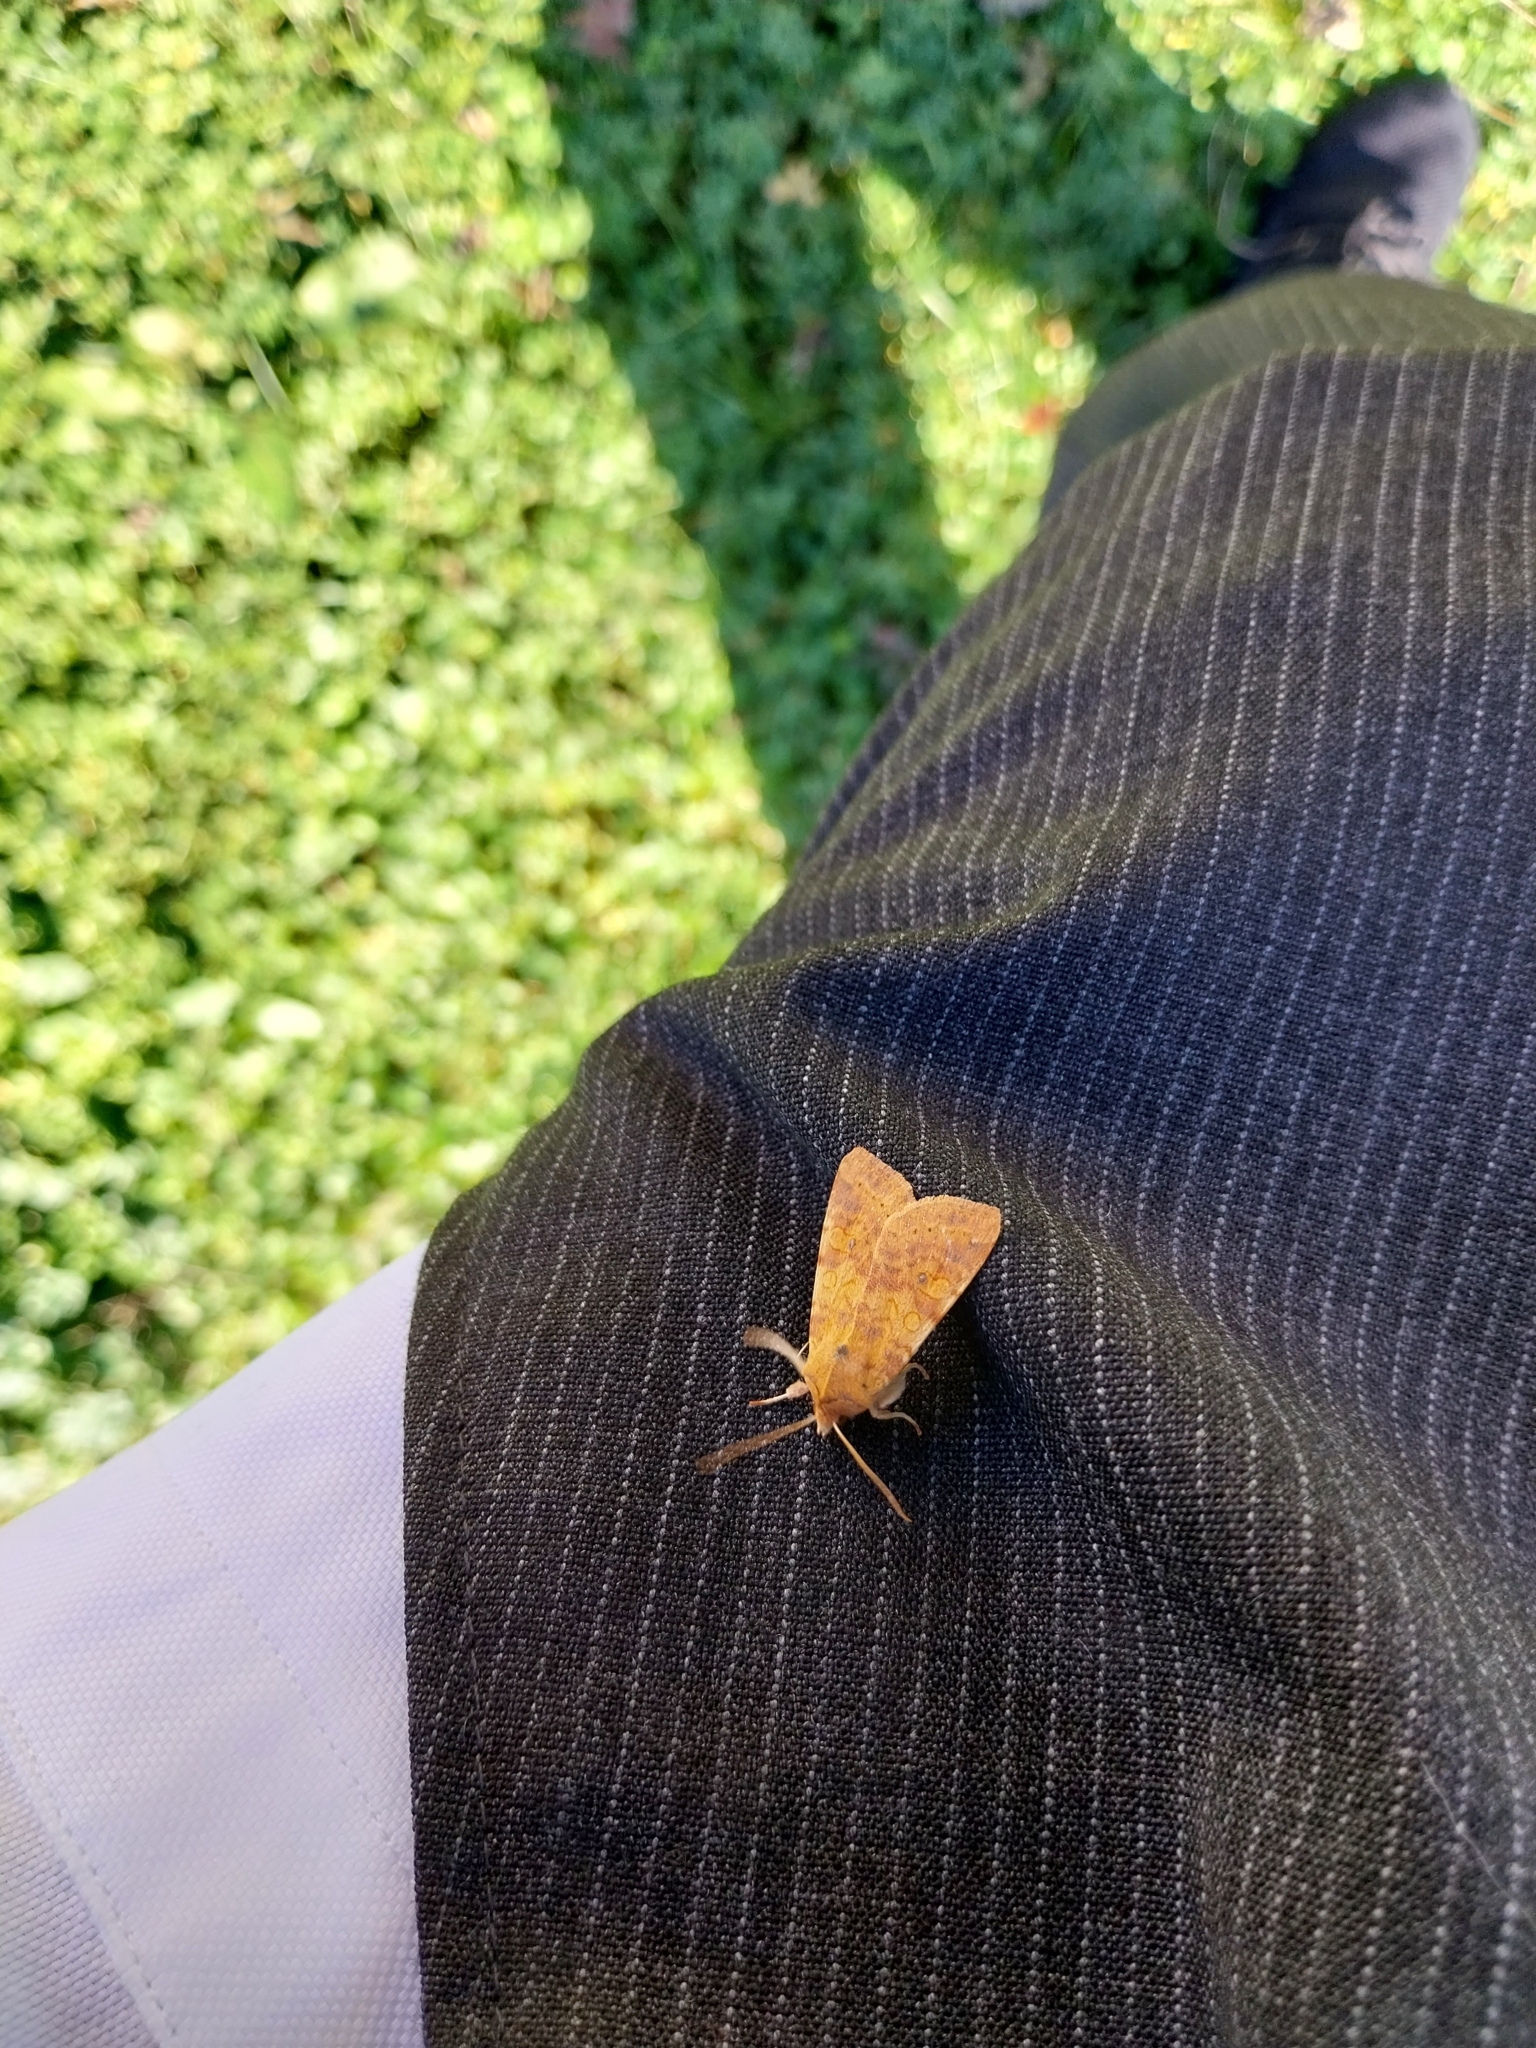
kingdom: Animalia
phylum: Arthropoda
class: Insecta
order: Lepidoptera
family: Noctuidae
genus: Xanthia
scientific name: Xanthia gilvago
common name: Dusky-lemon sallow
